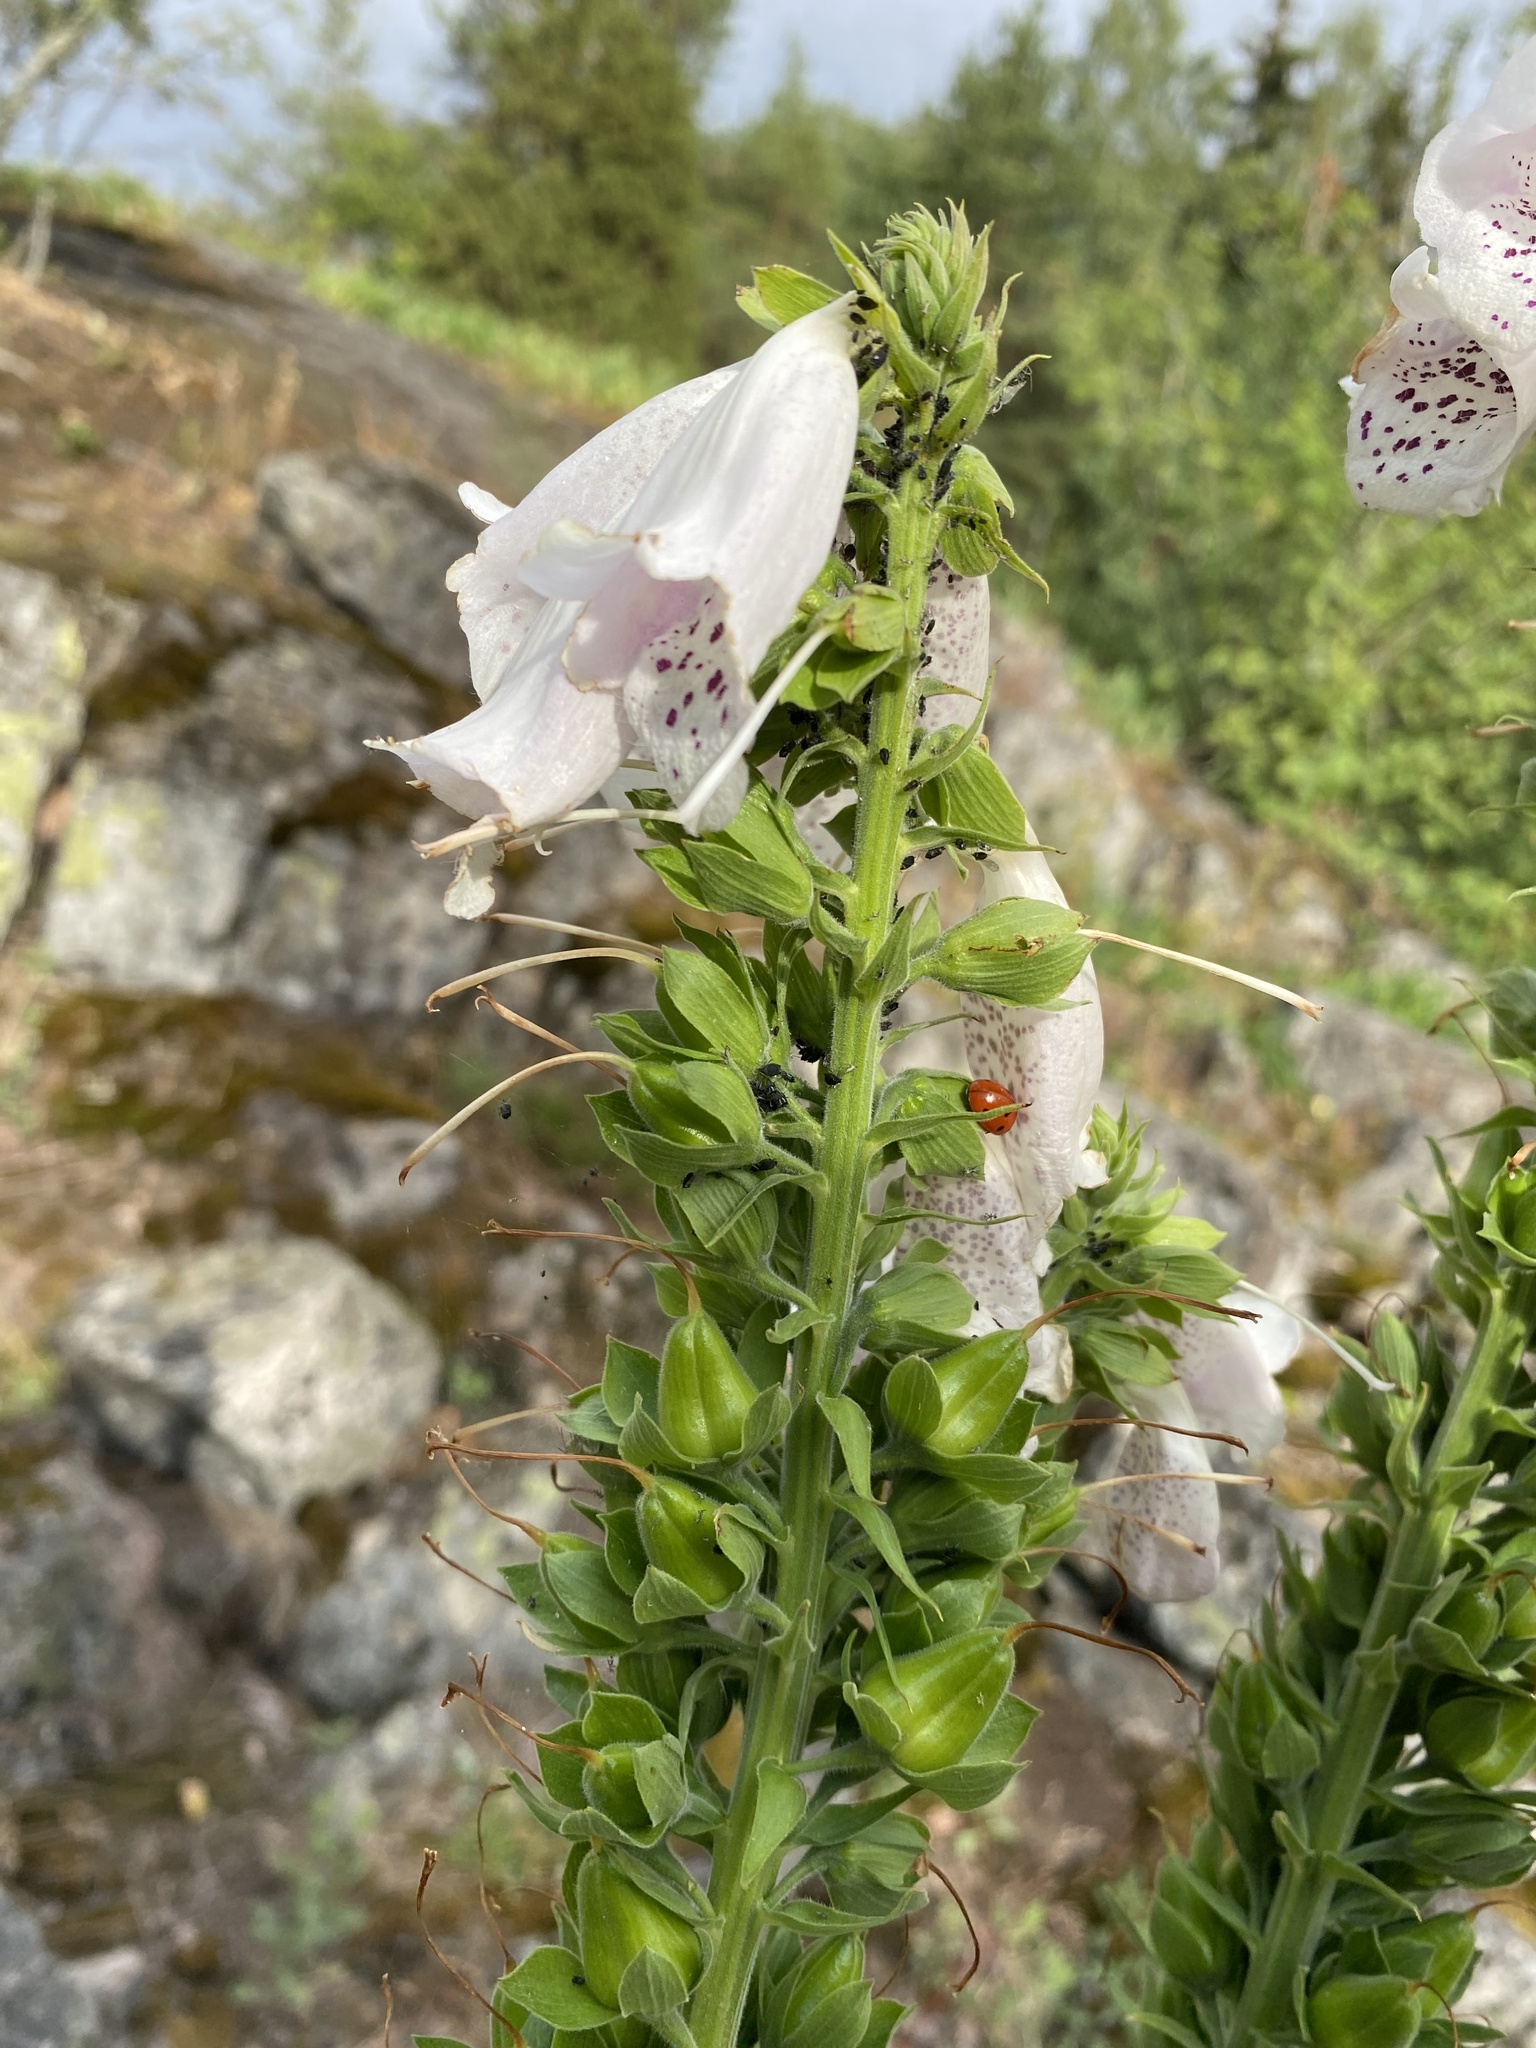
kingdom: Plantae
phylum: Tracheophyta
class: Magnoliopsida
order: Lamiales
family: Plantaginaceae
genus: Digitalis
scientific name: Digitalis purpurea
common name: Foxglove
